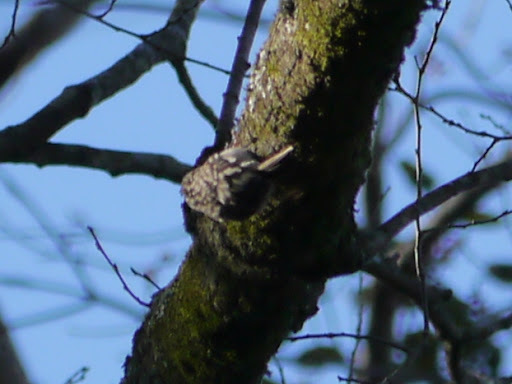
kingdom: Animalia
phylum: Chordata
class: Aves
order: Passeriformes
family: Certhiidae
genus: Certhia
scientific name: Certhia americana
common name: Brown creeper
